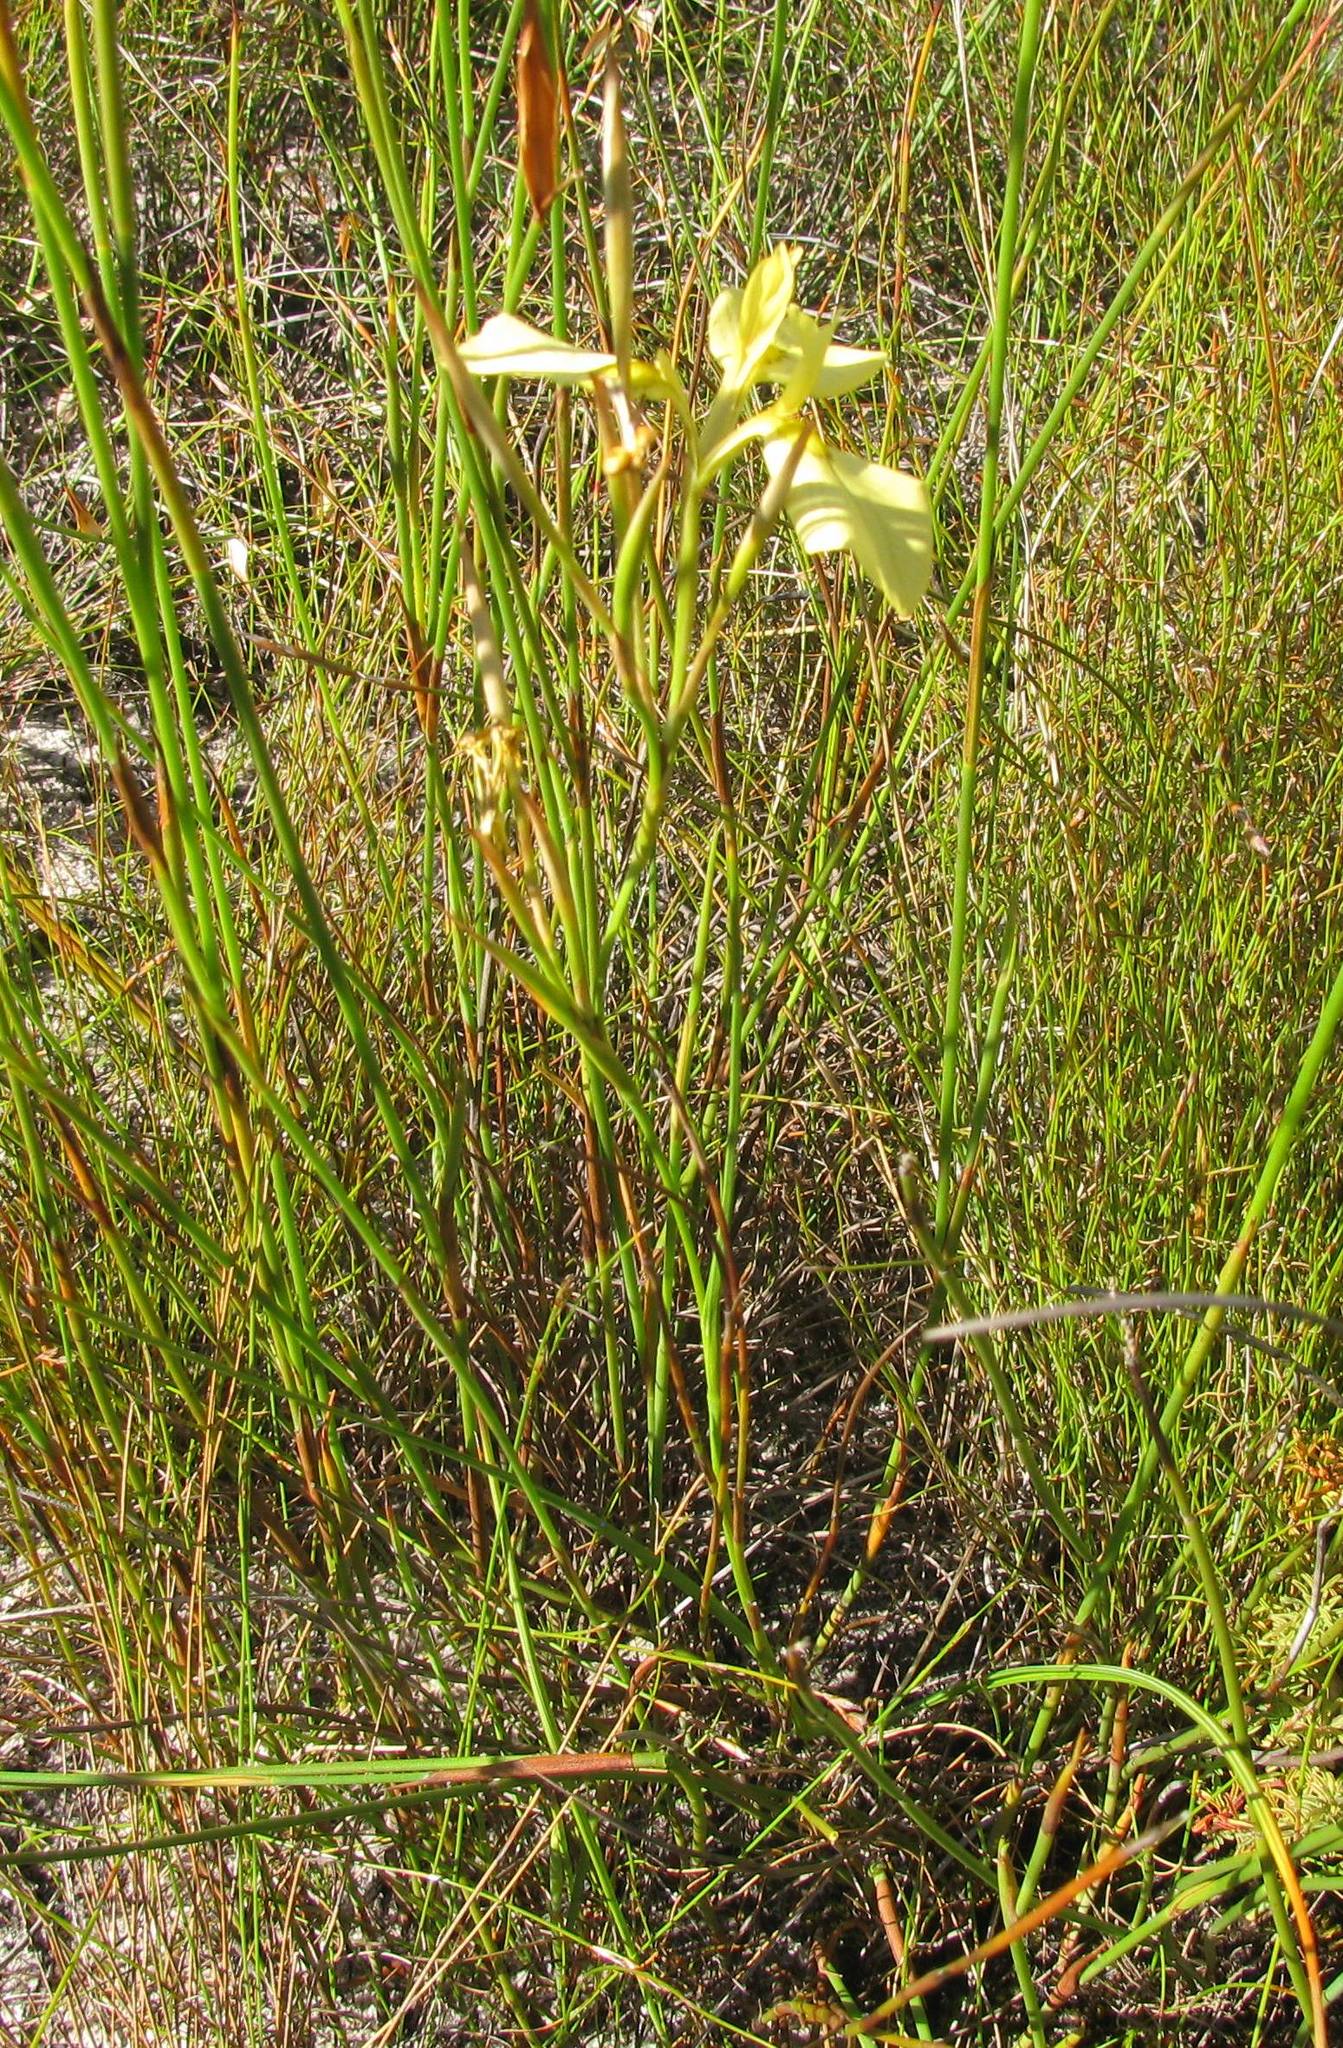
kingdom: Plantae
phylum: Tracheophyta
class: Liliopsida
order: Asparagales
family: Iridaceae
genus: Moraea
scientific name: Moraea cooperi
